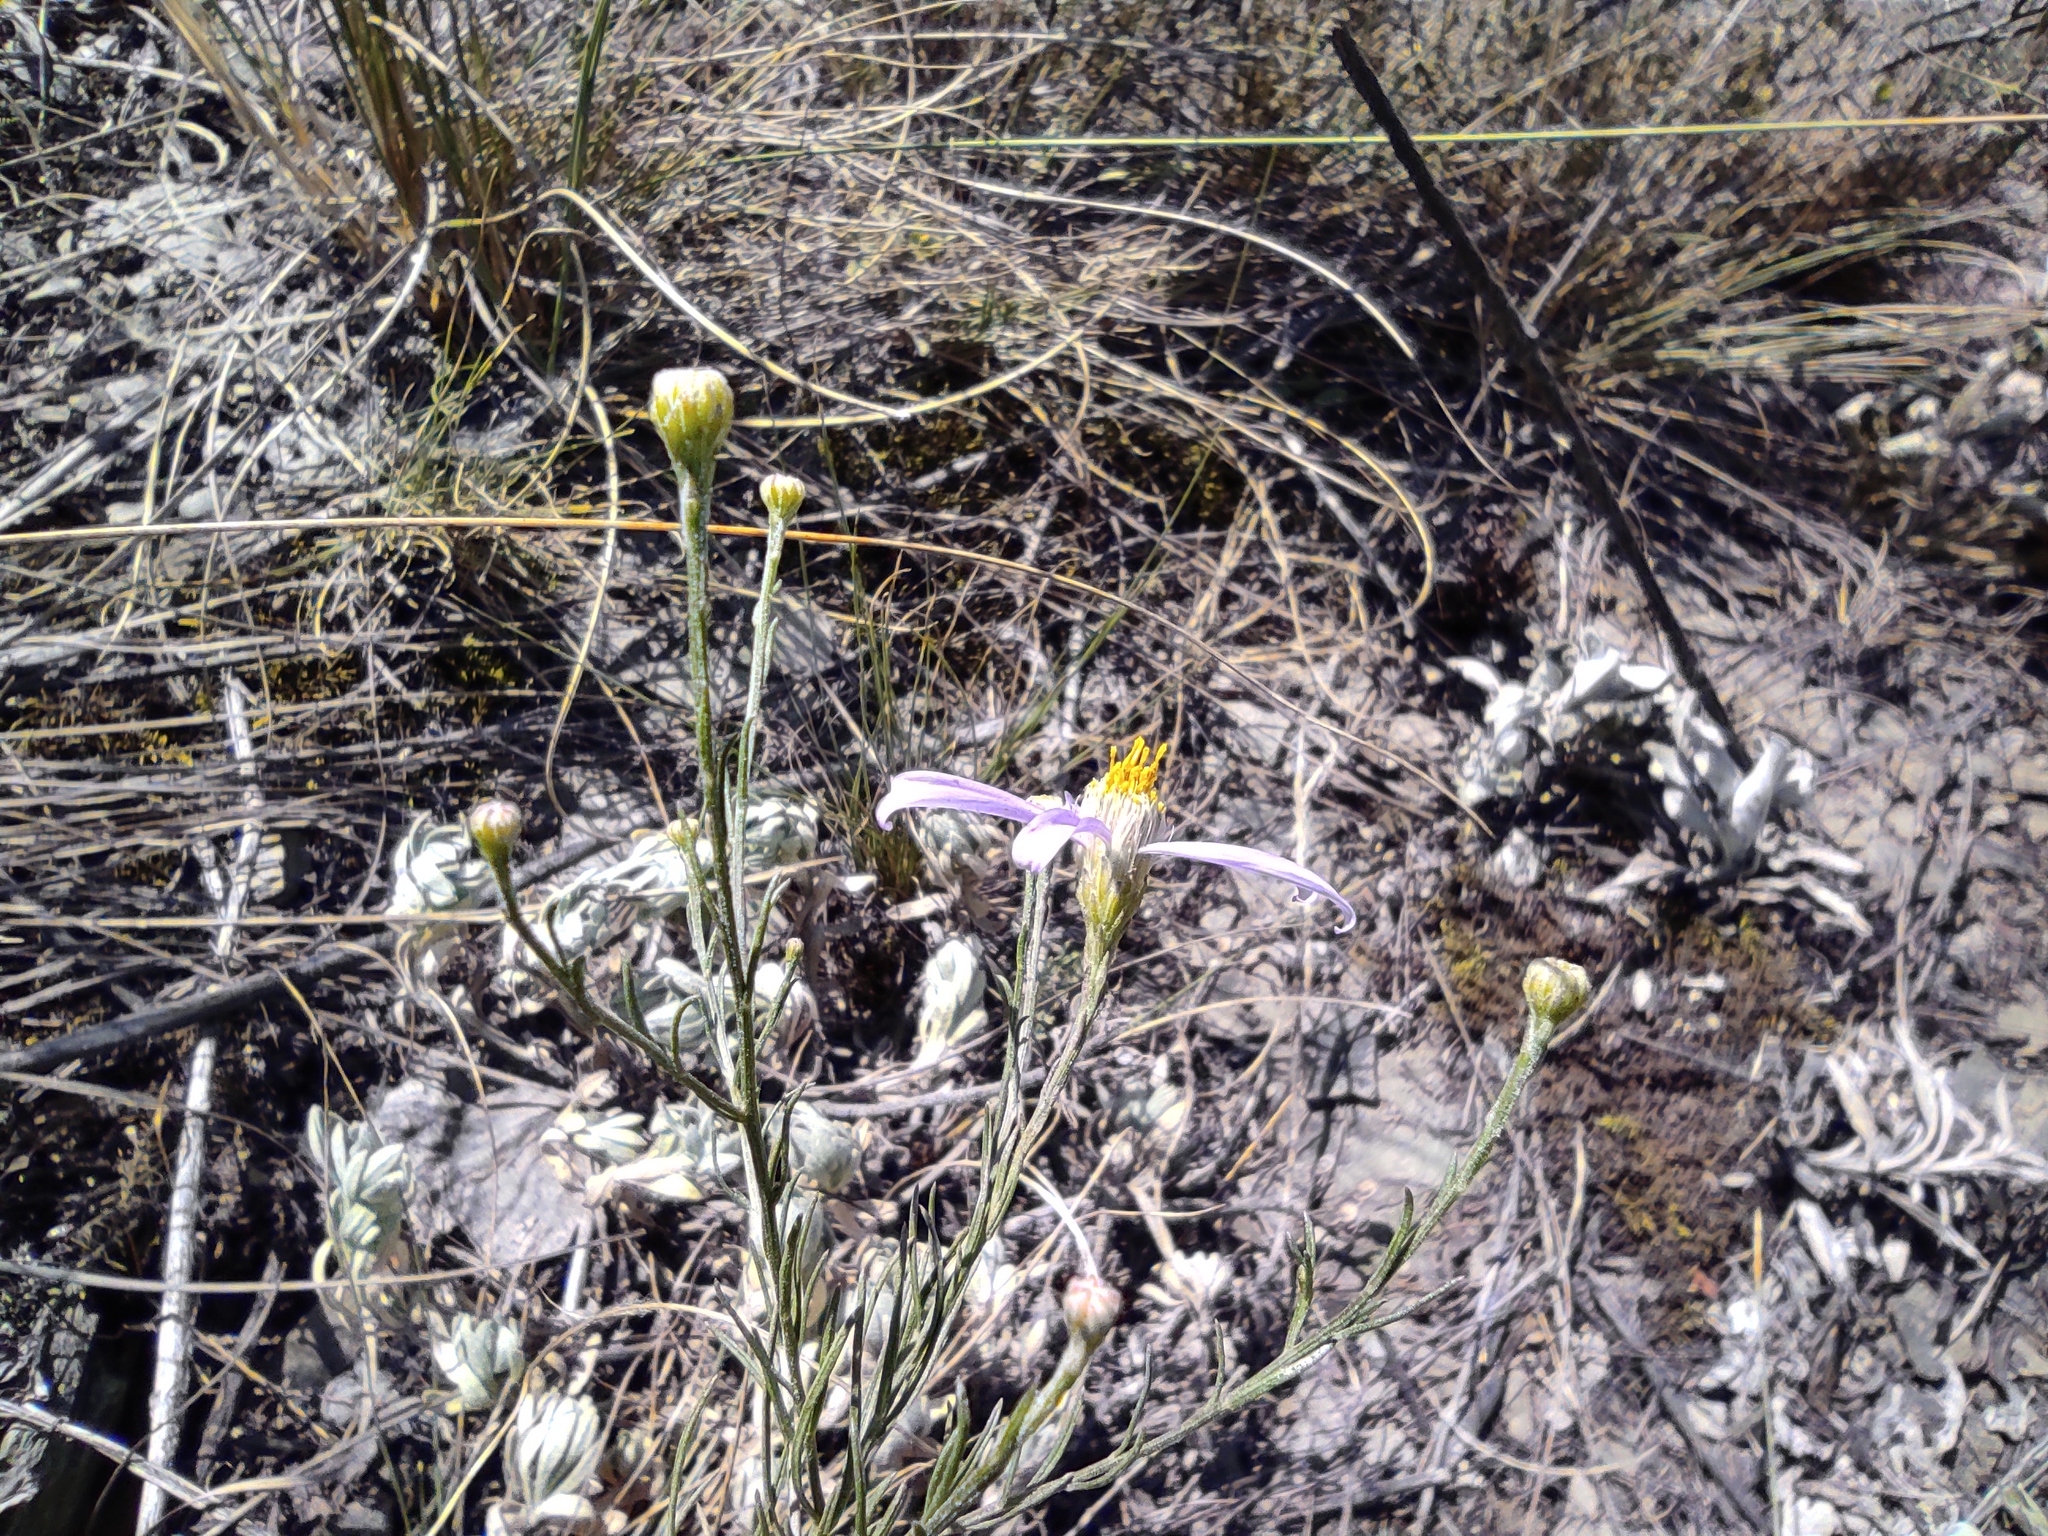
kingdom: Plantae
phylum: Tracheophyta
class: Magnoliopsida
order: Asterales
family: Asteraceae
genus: Galatella
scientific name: Galatella angustissima
